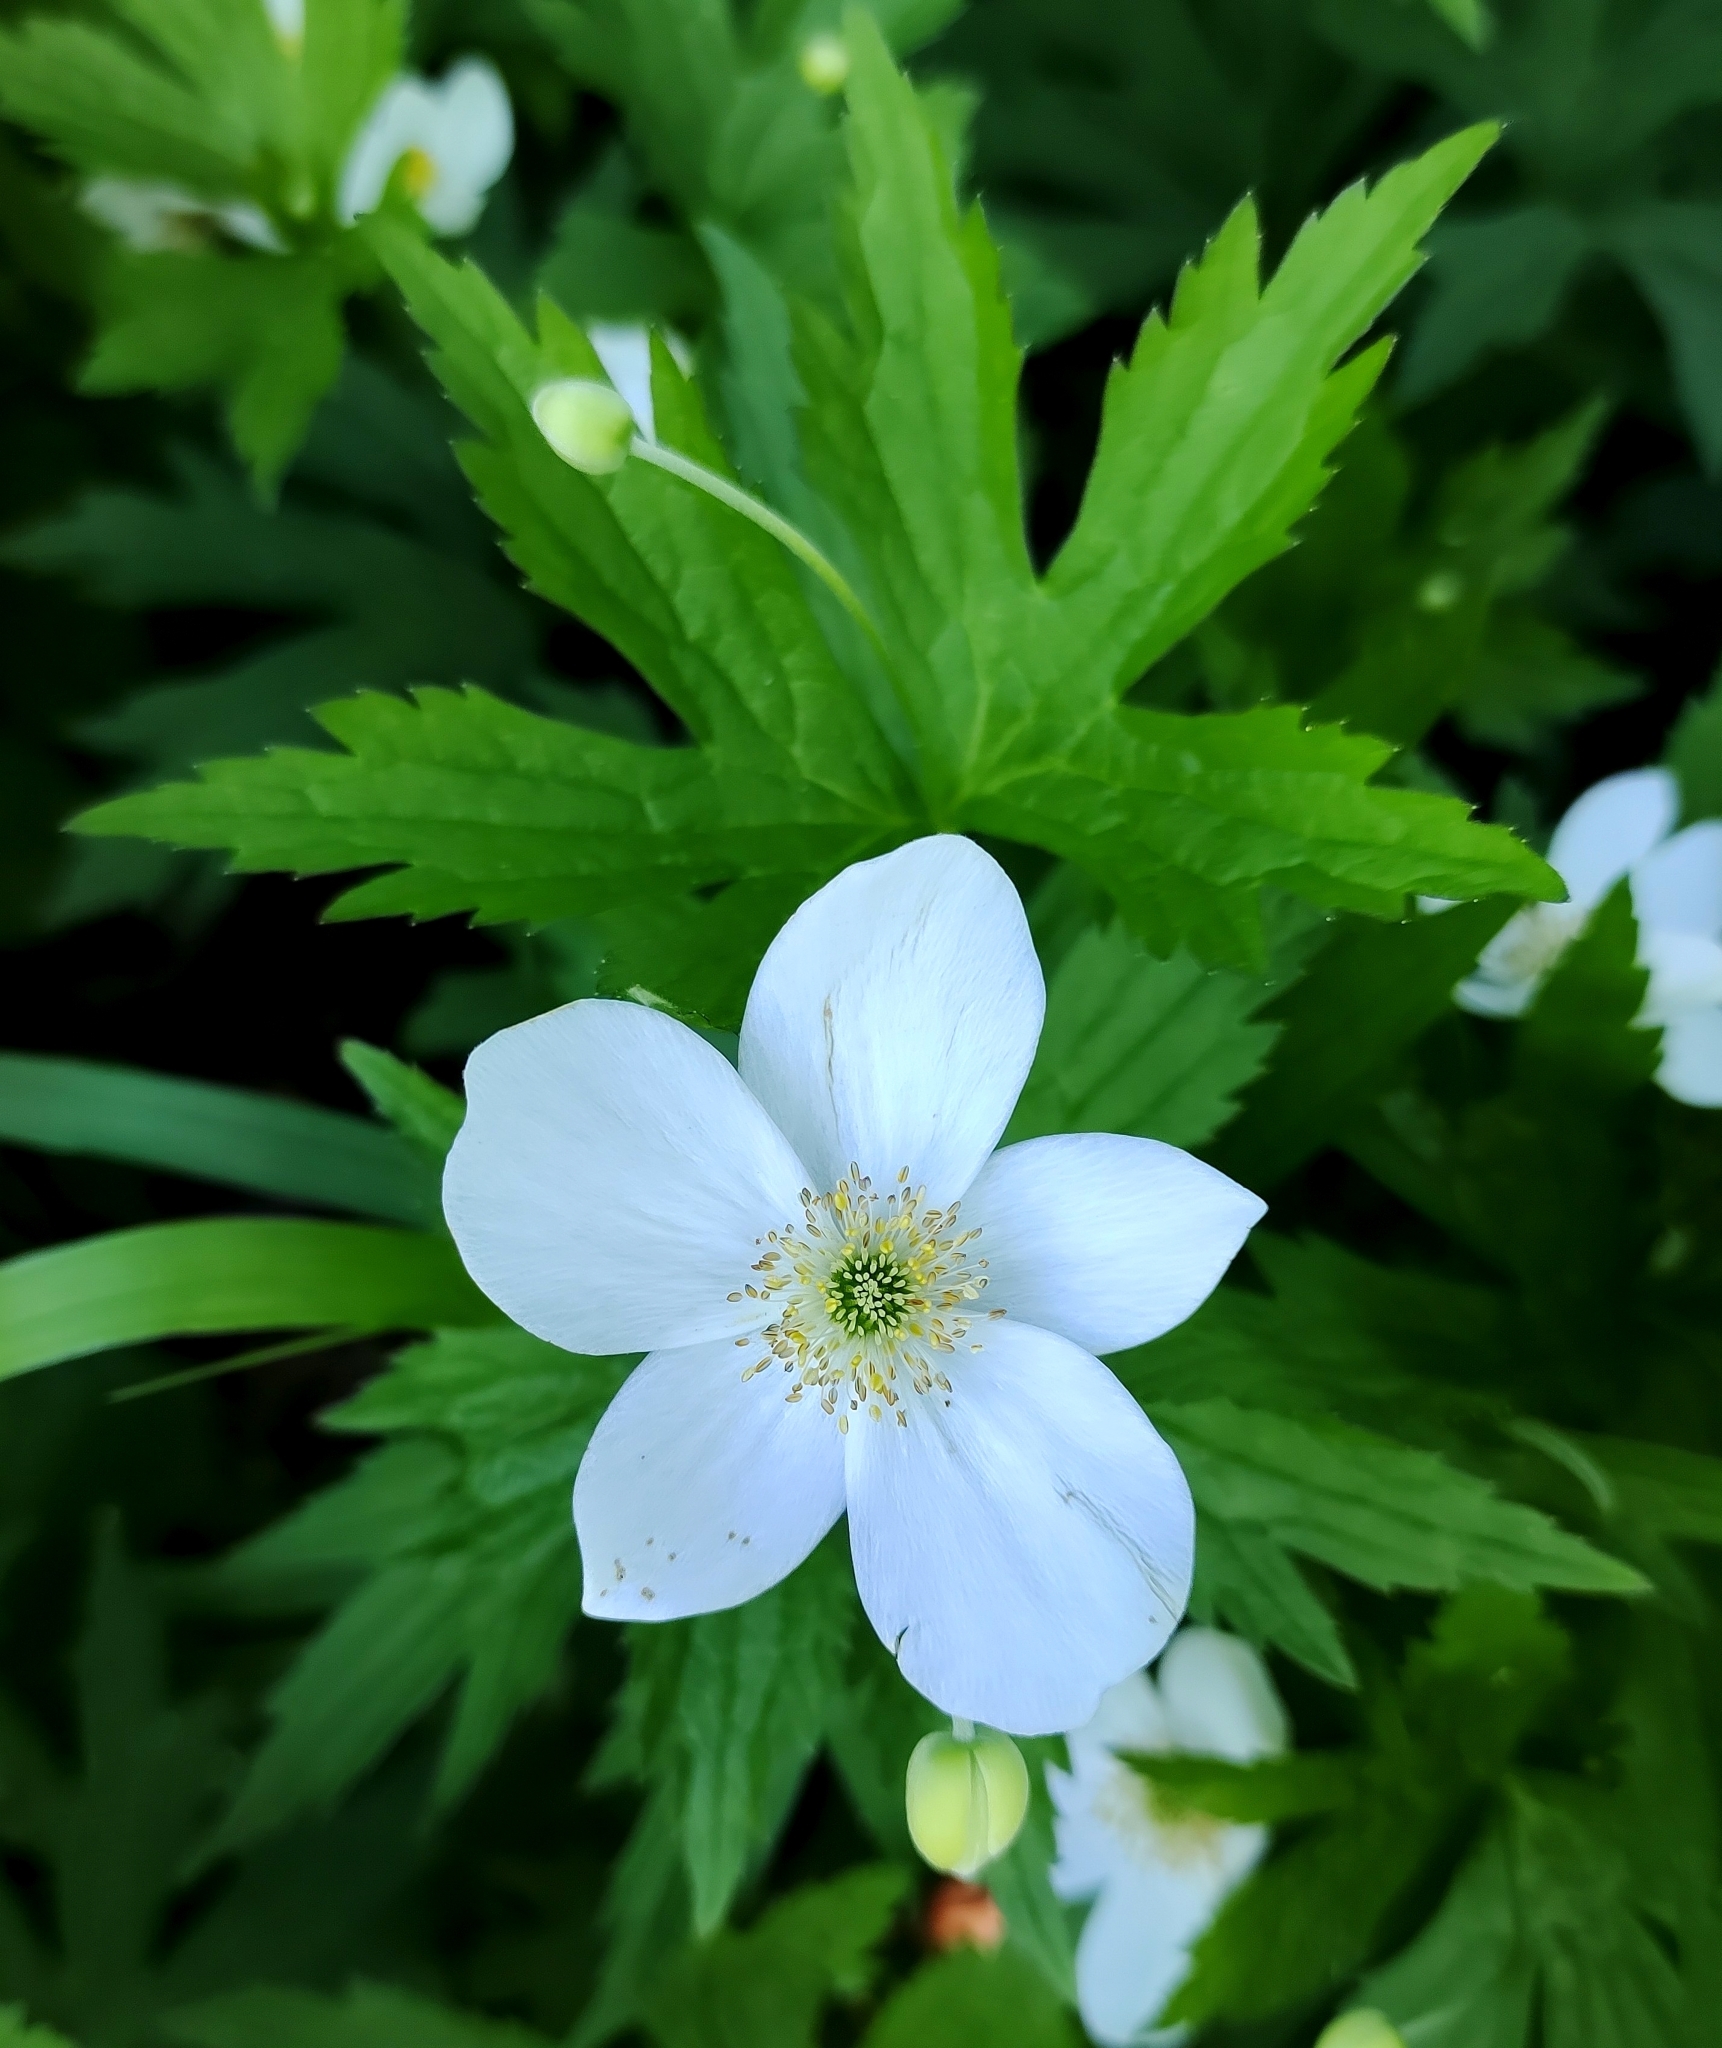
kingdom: Plantae
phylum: Tracheophyta
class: Magnoliopsida
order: Ranunculales
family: Ranunculaceae
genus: Anemonastrum
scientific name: Anemonastrum canadense
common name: Canada anemone
